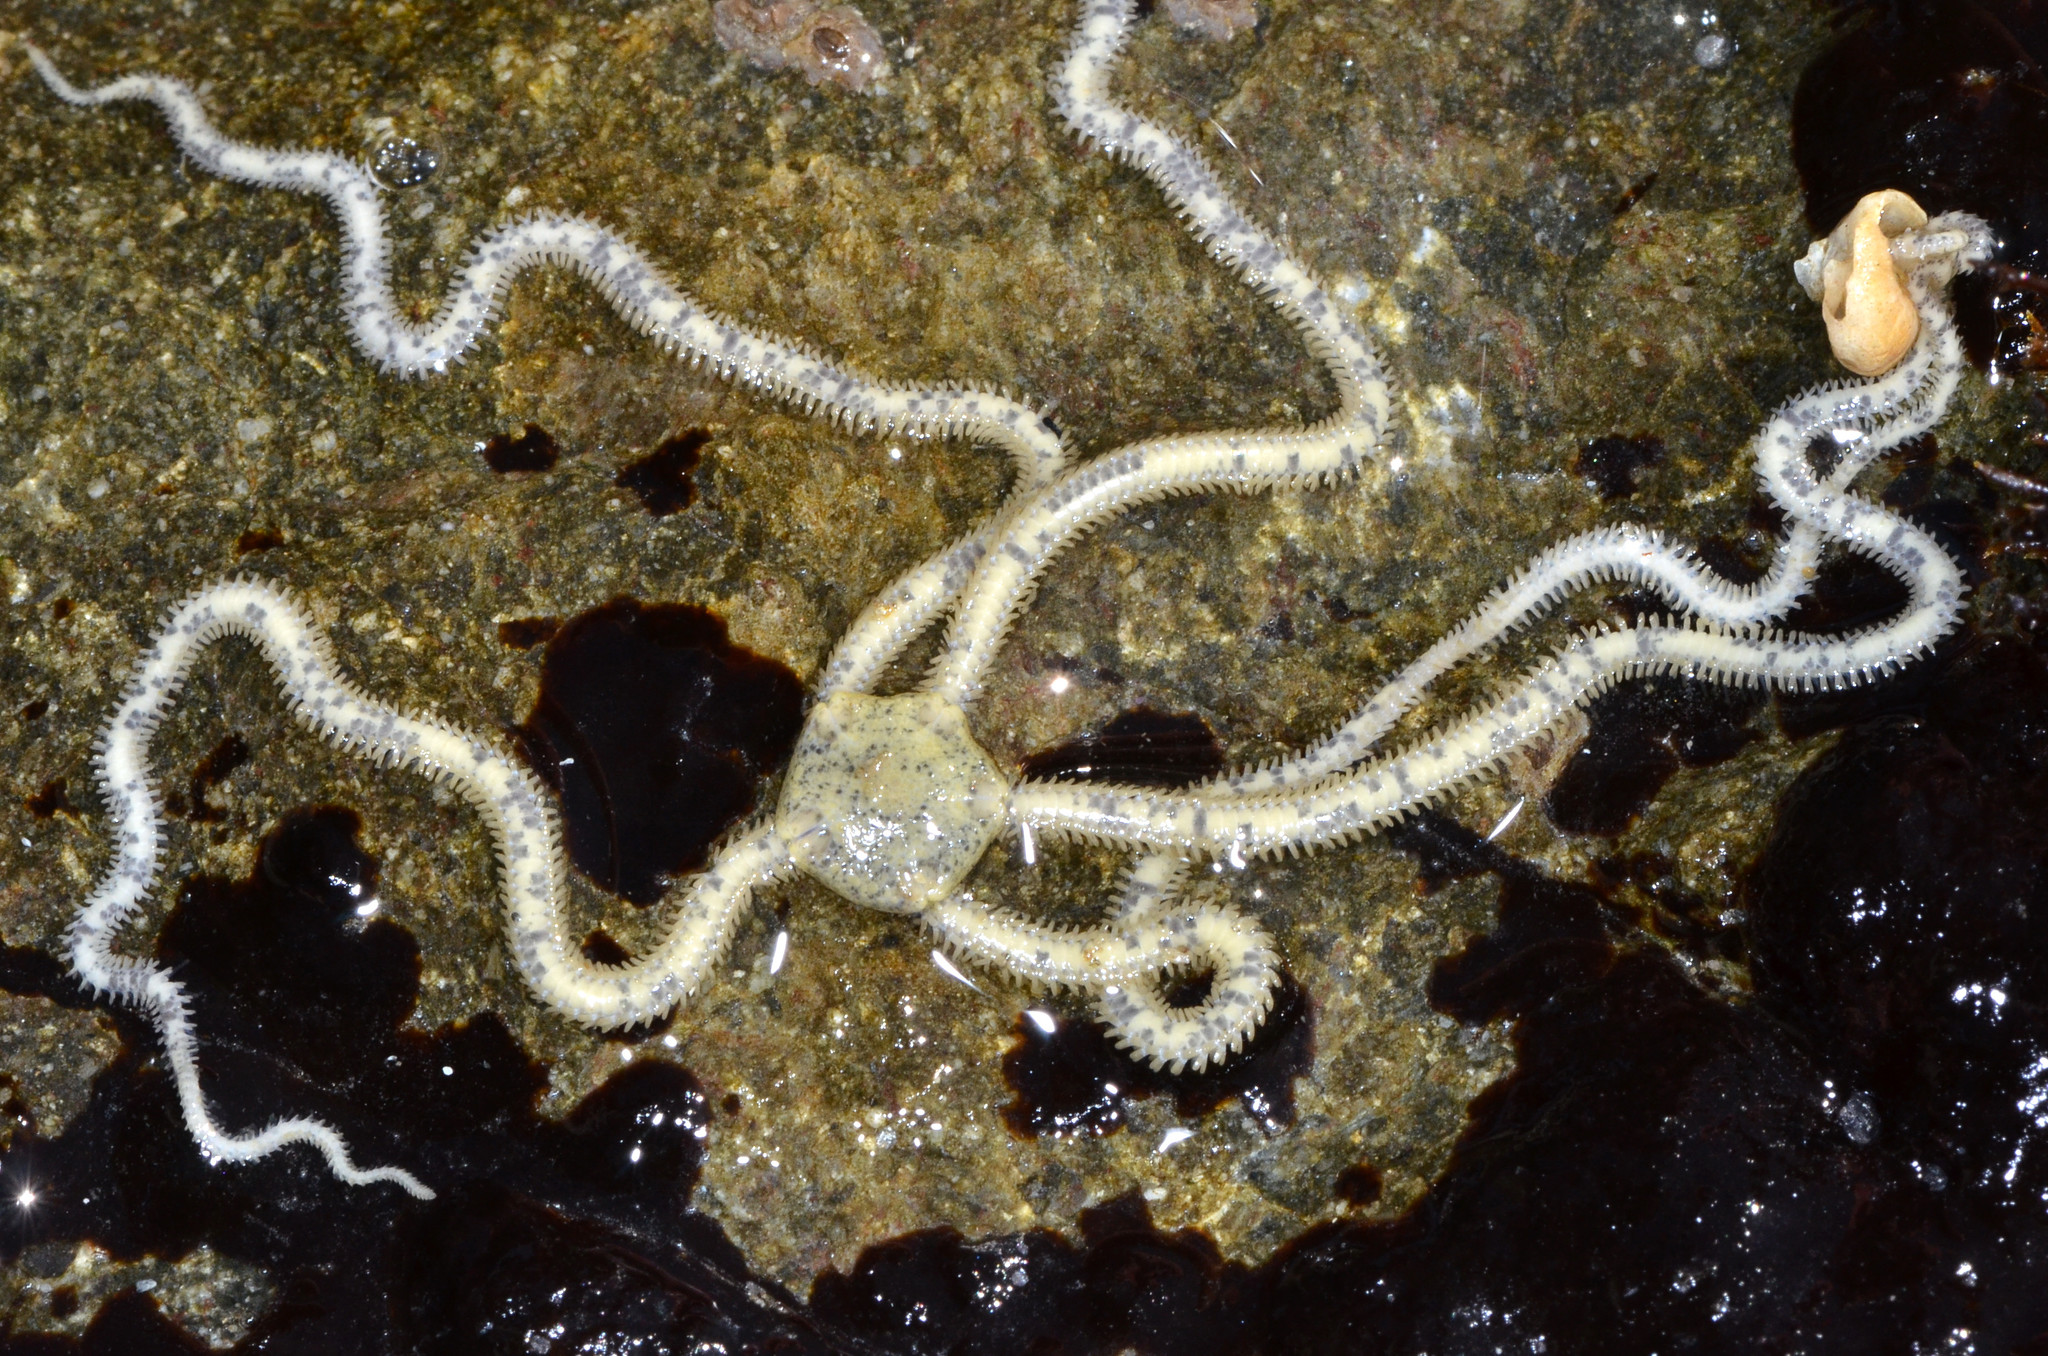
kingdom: Animalia
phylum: Echinodermata
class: Ophiuroidea
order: Amphilepidida
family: Amphiuridae
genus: Amphiodia
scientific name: Amphiodia occidentalis
